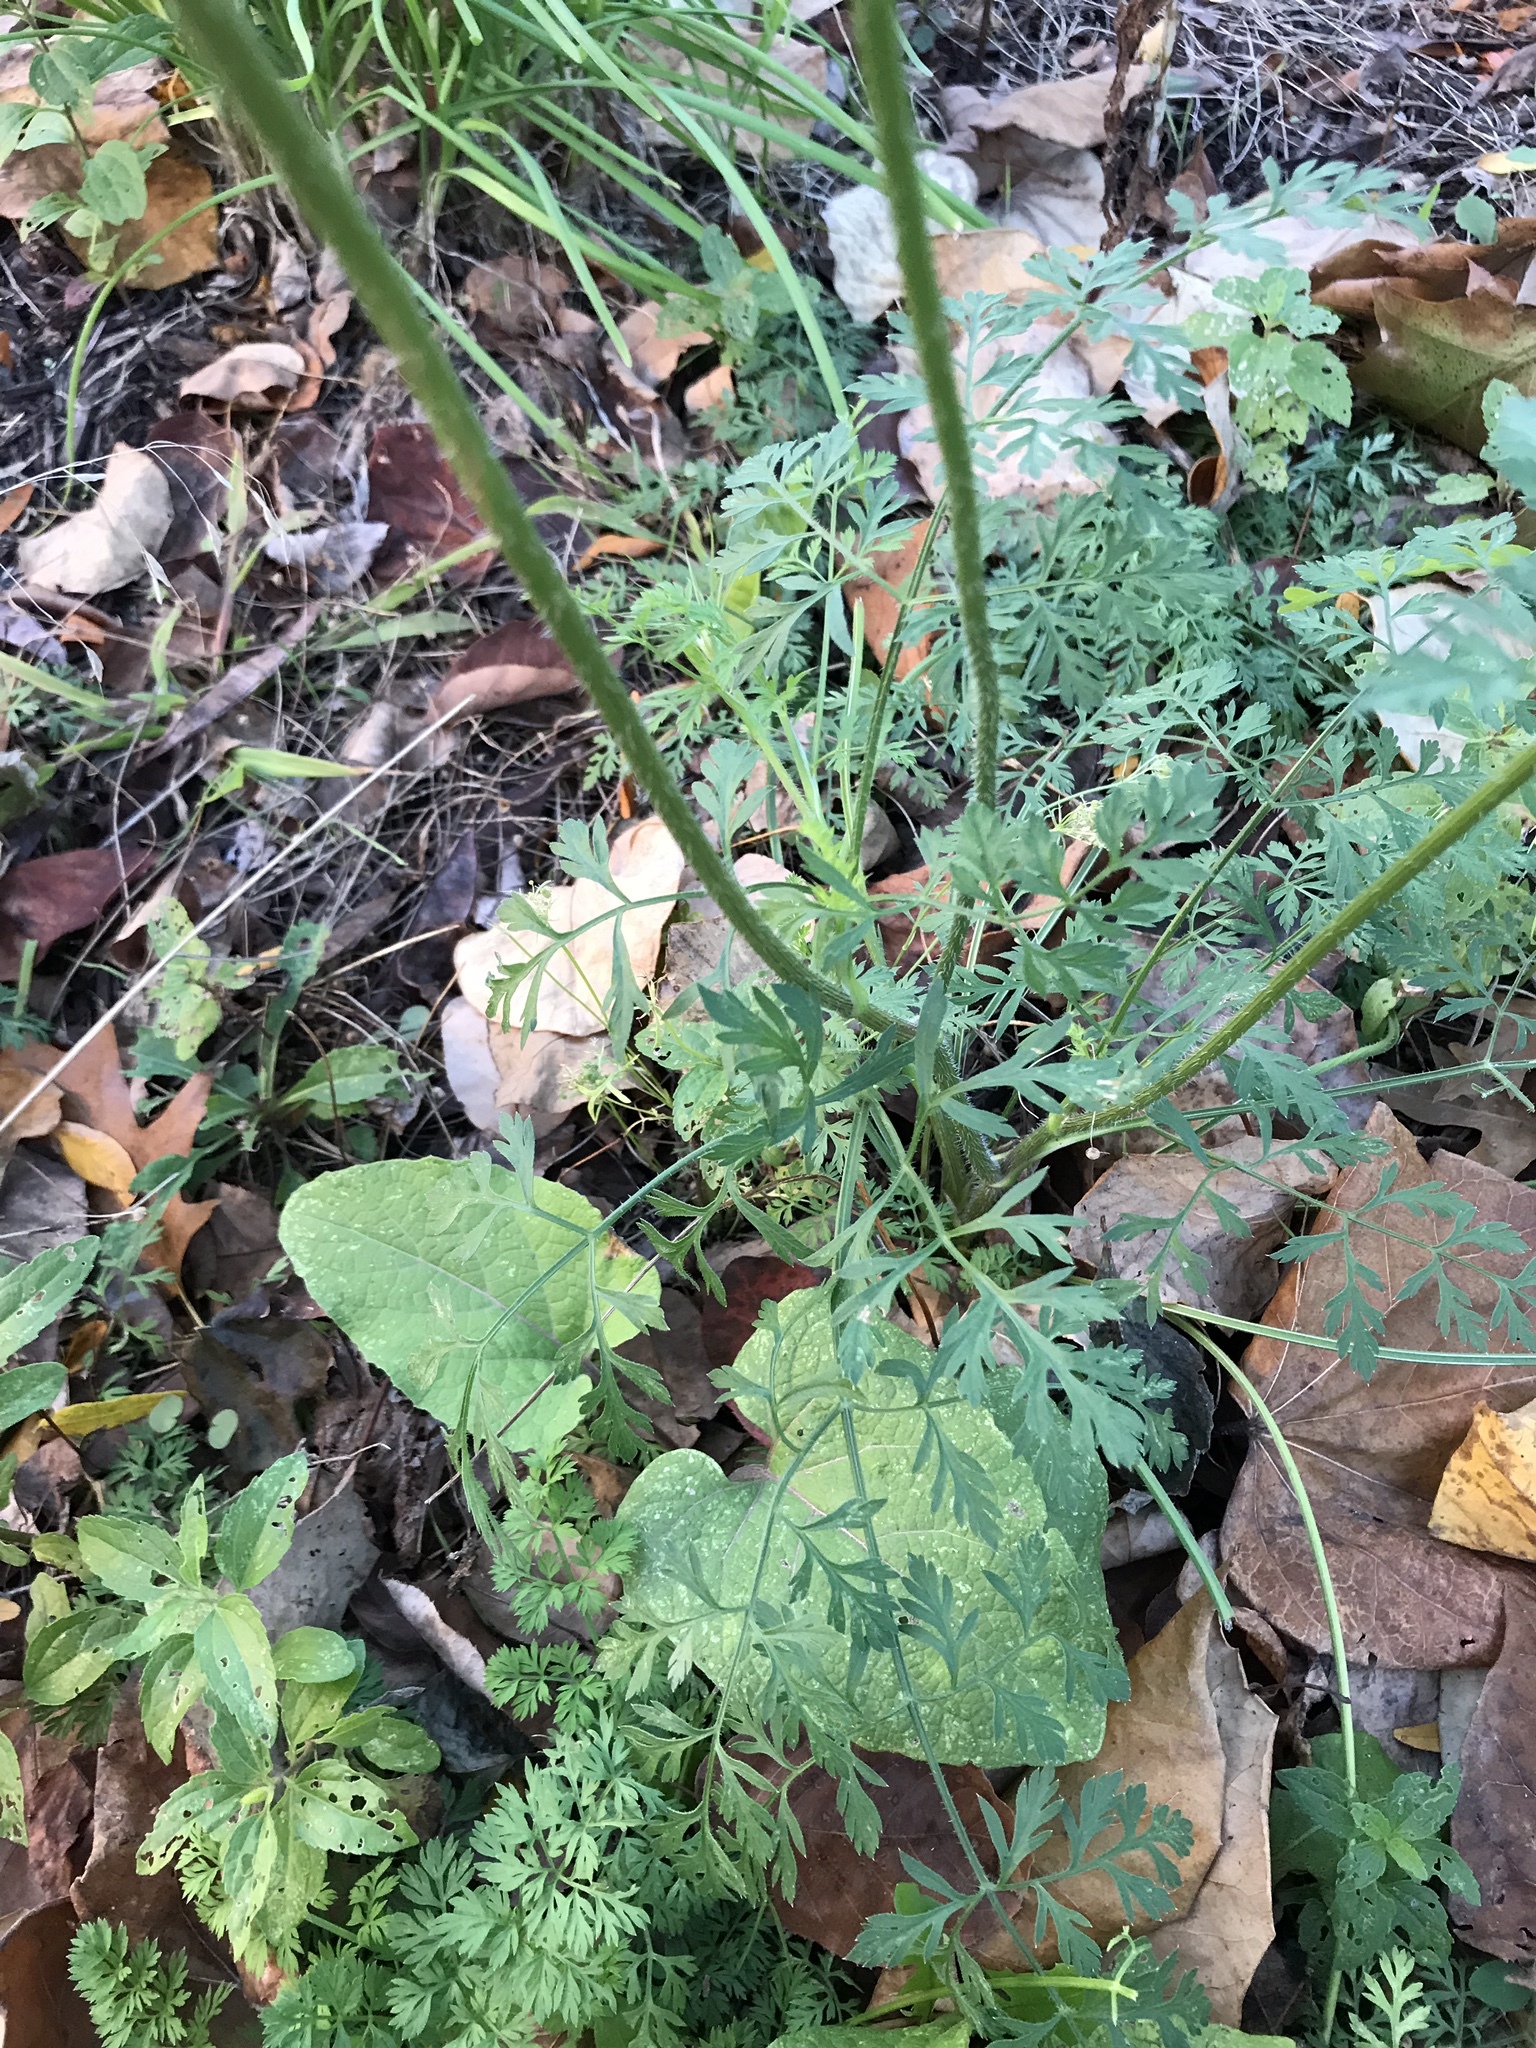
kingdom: Plantae
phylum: Tracheophyta
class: Magnoliopsida
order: Apiales
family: Apiaceae
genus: Daucus
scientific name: Daucus carota
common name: Wild carrot
